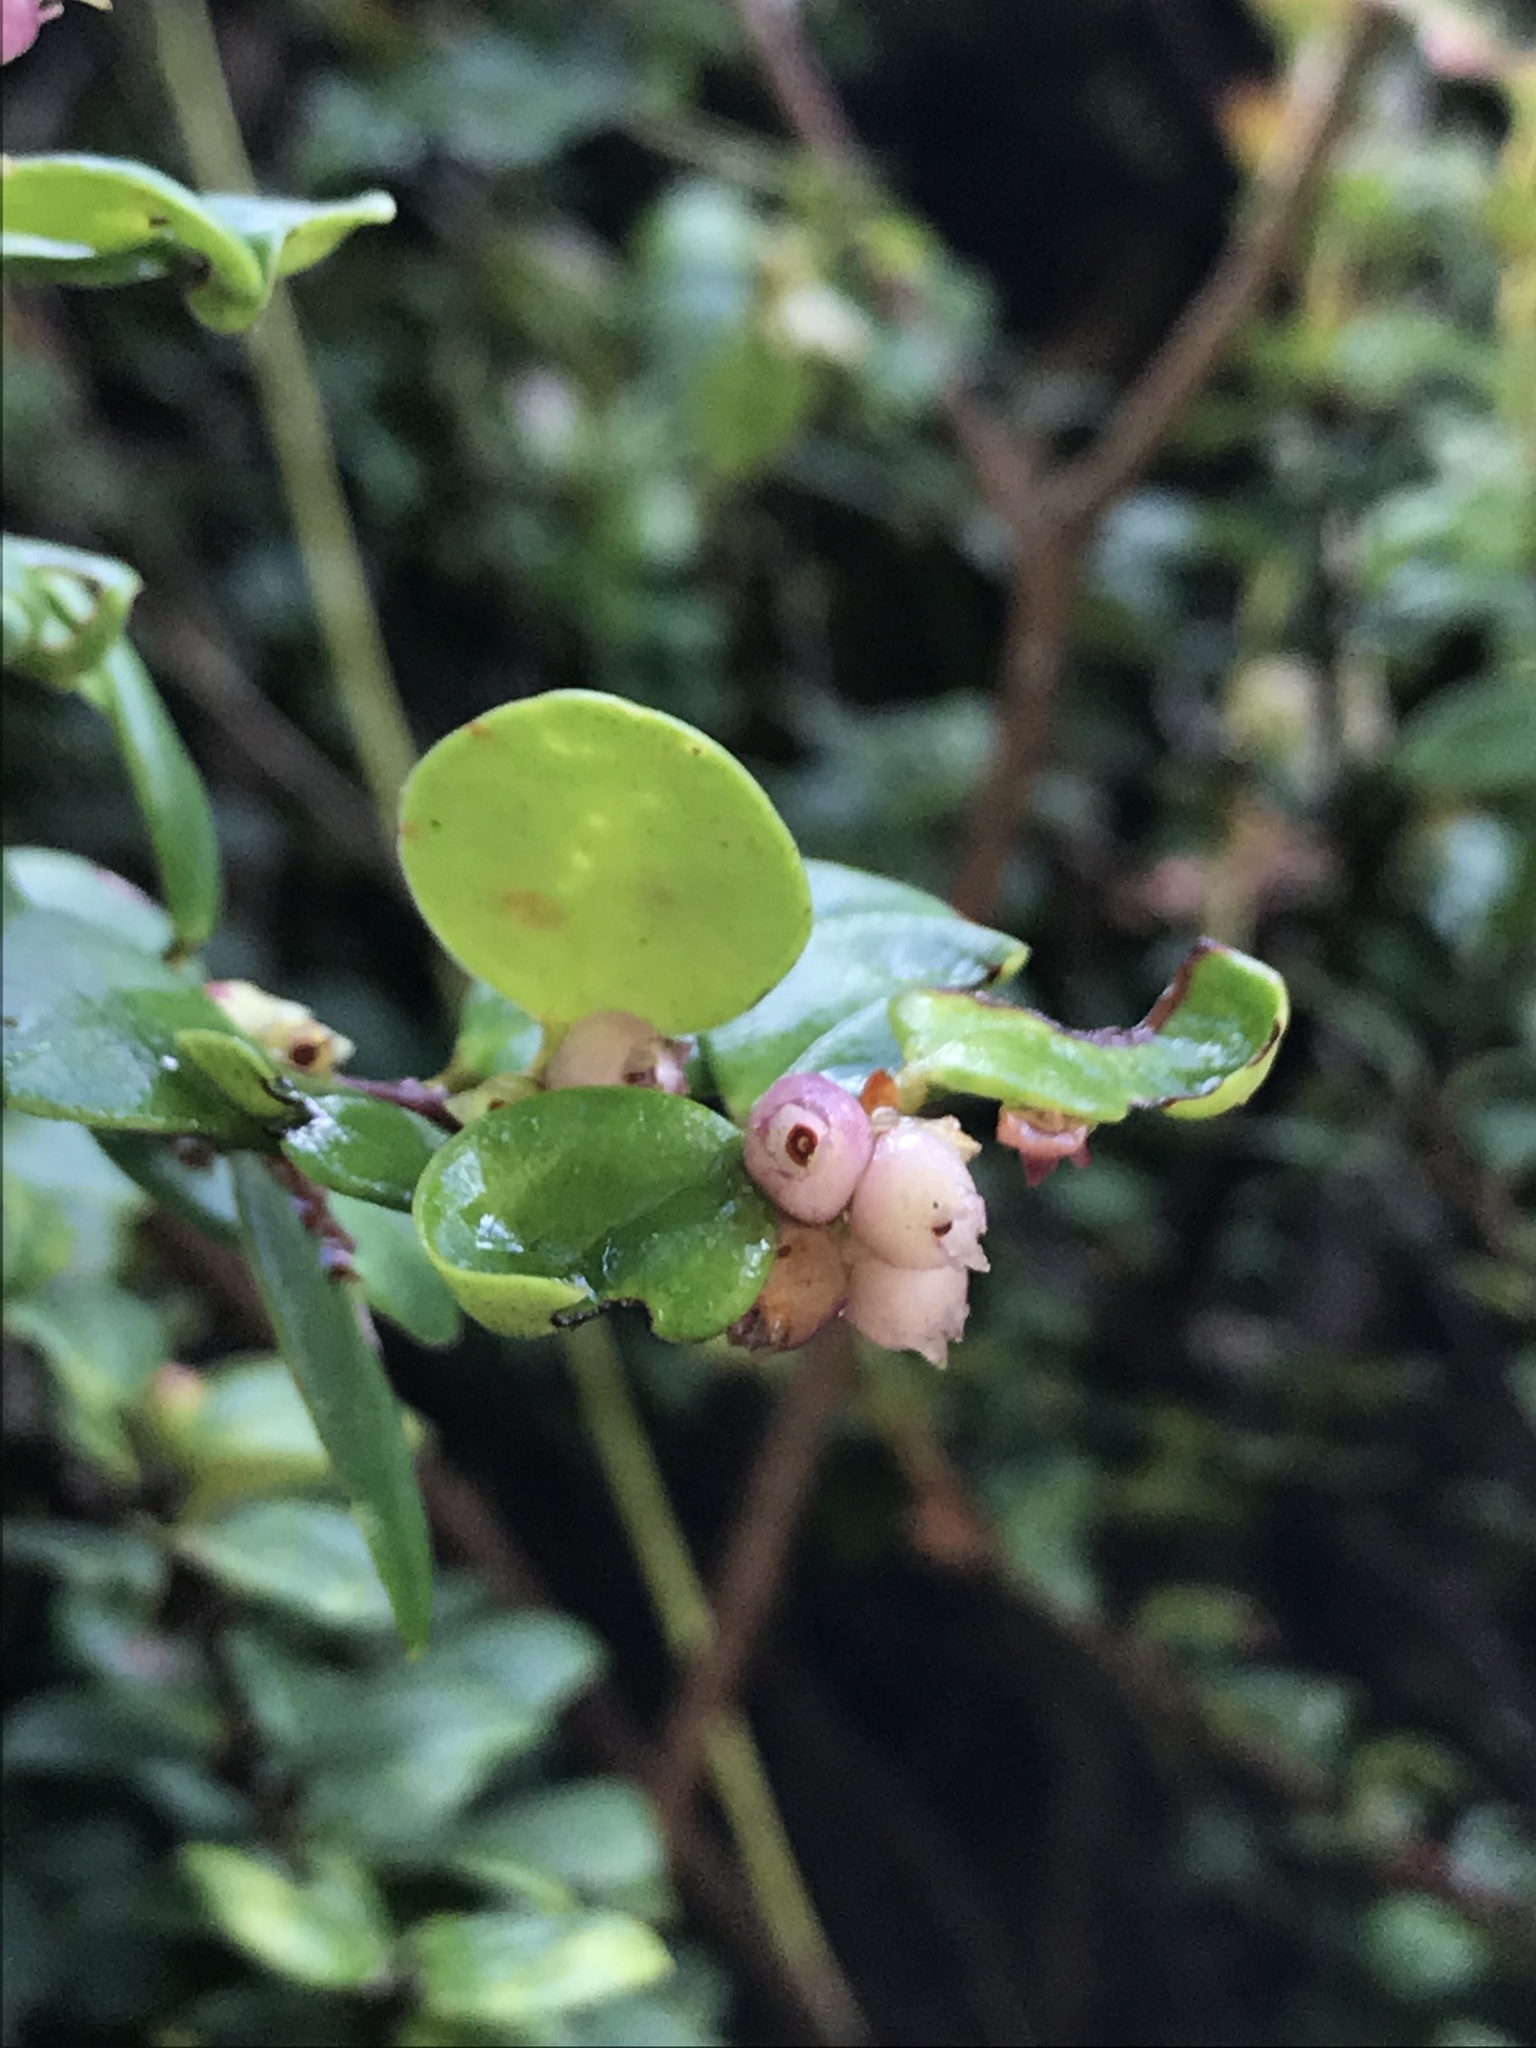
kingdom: Plantae
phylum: Tracheophyta
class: Magnoliopsida
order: Ericales
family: Ericaceae
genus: Disterigma
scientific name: Disterigma alaternoides
